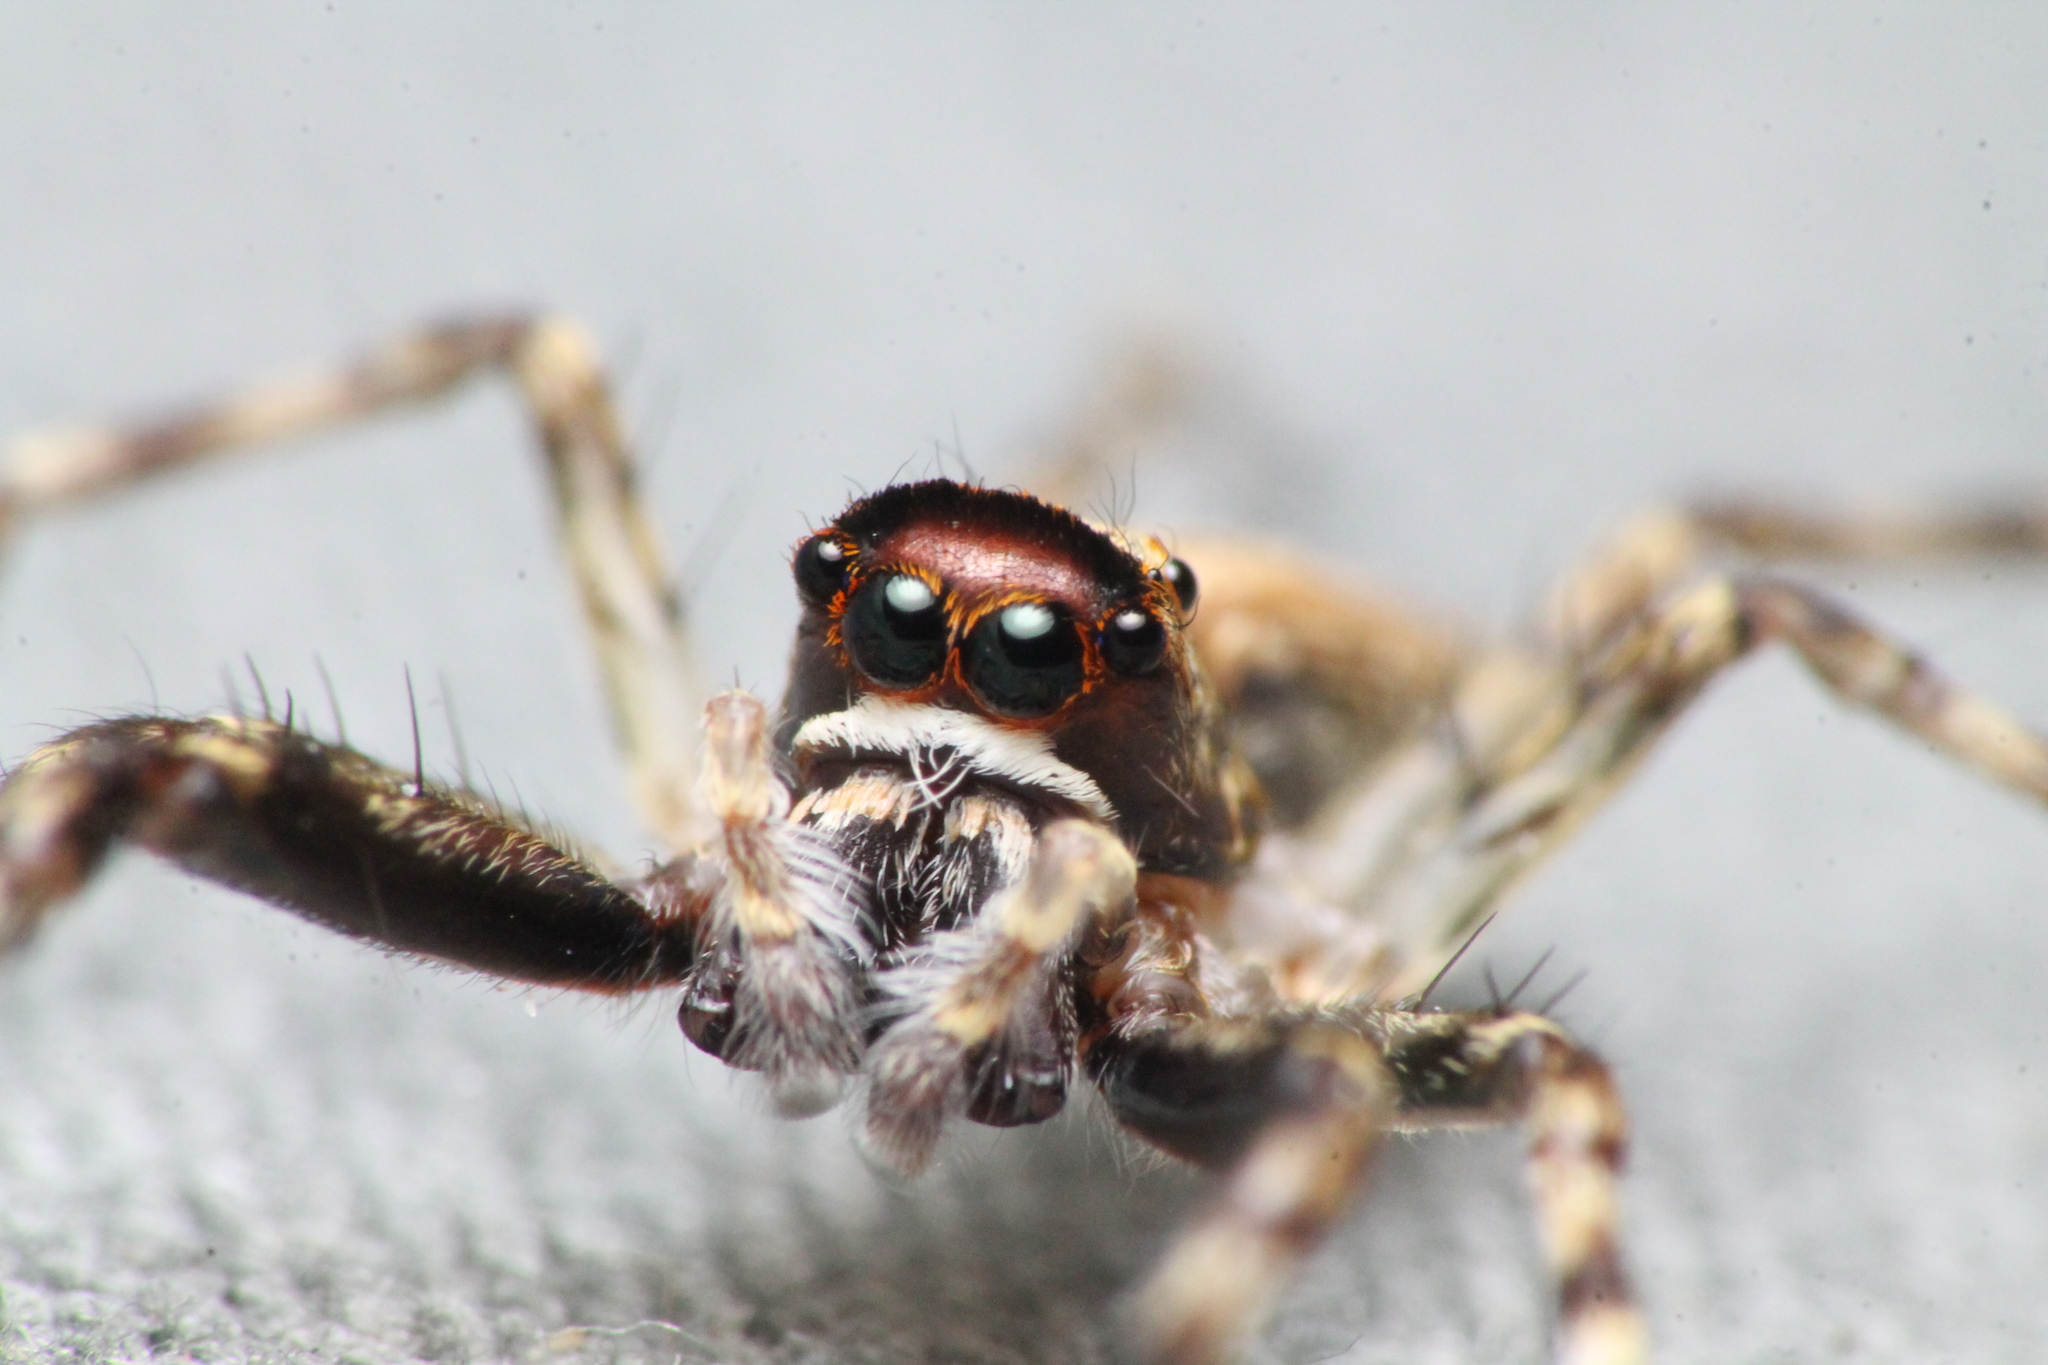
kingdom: Animalia
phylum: Arthropoda
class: Arachnida
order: Araneae
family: Salticidae
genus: Helpis
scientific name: Helpis minitabunda
